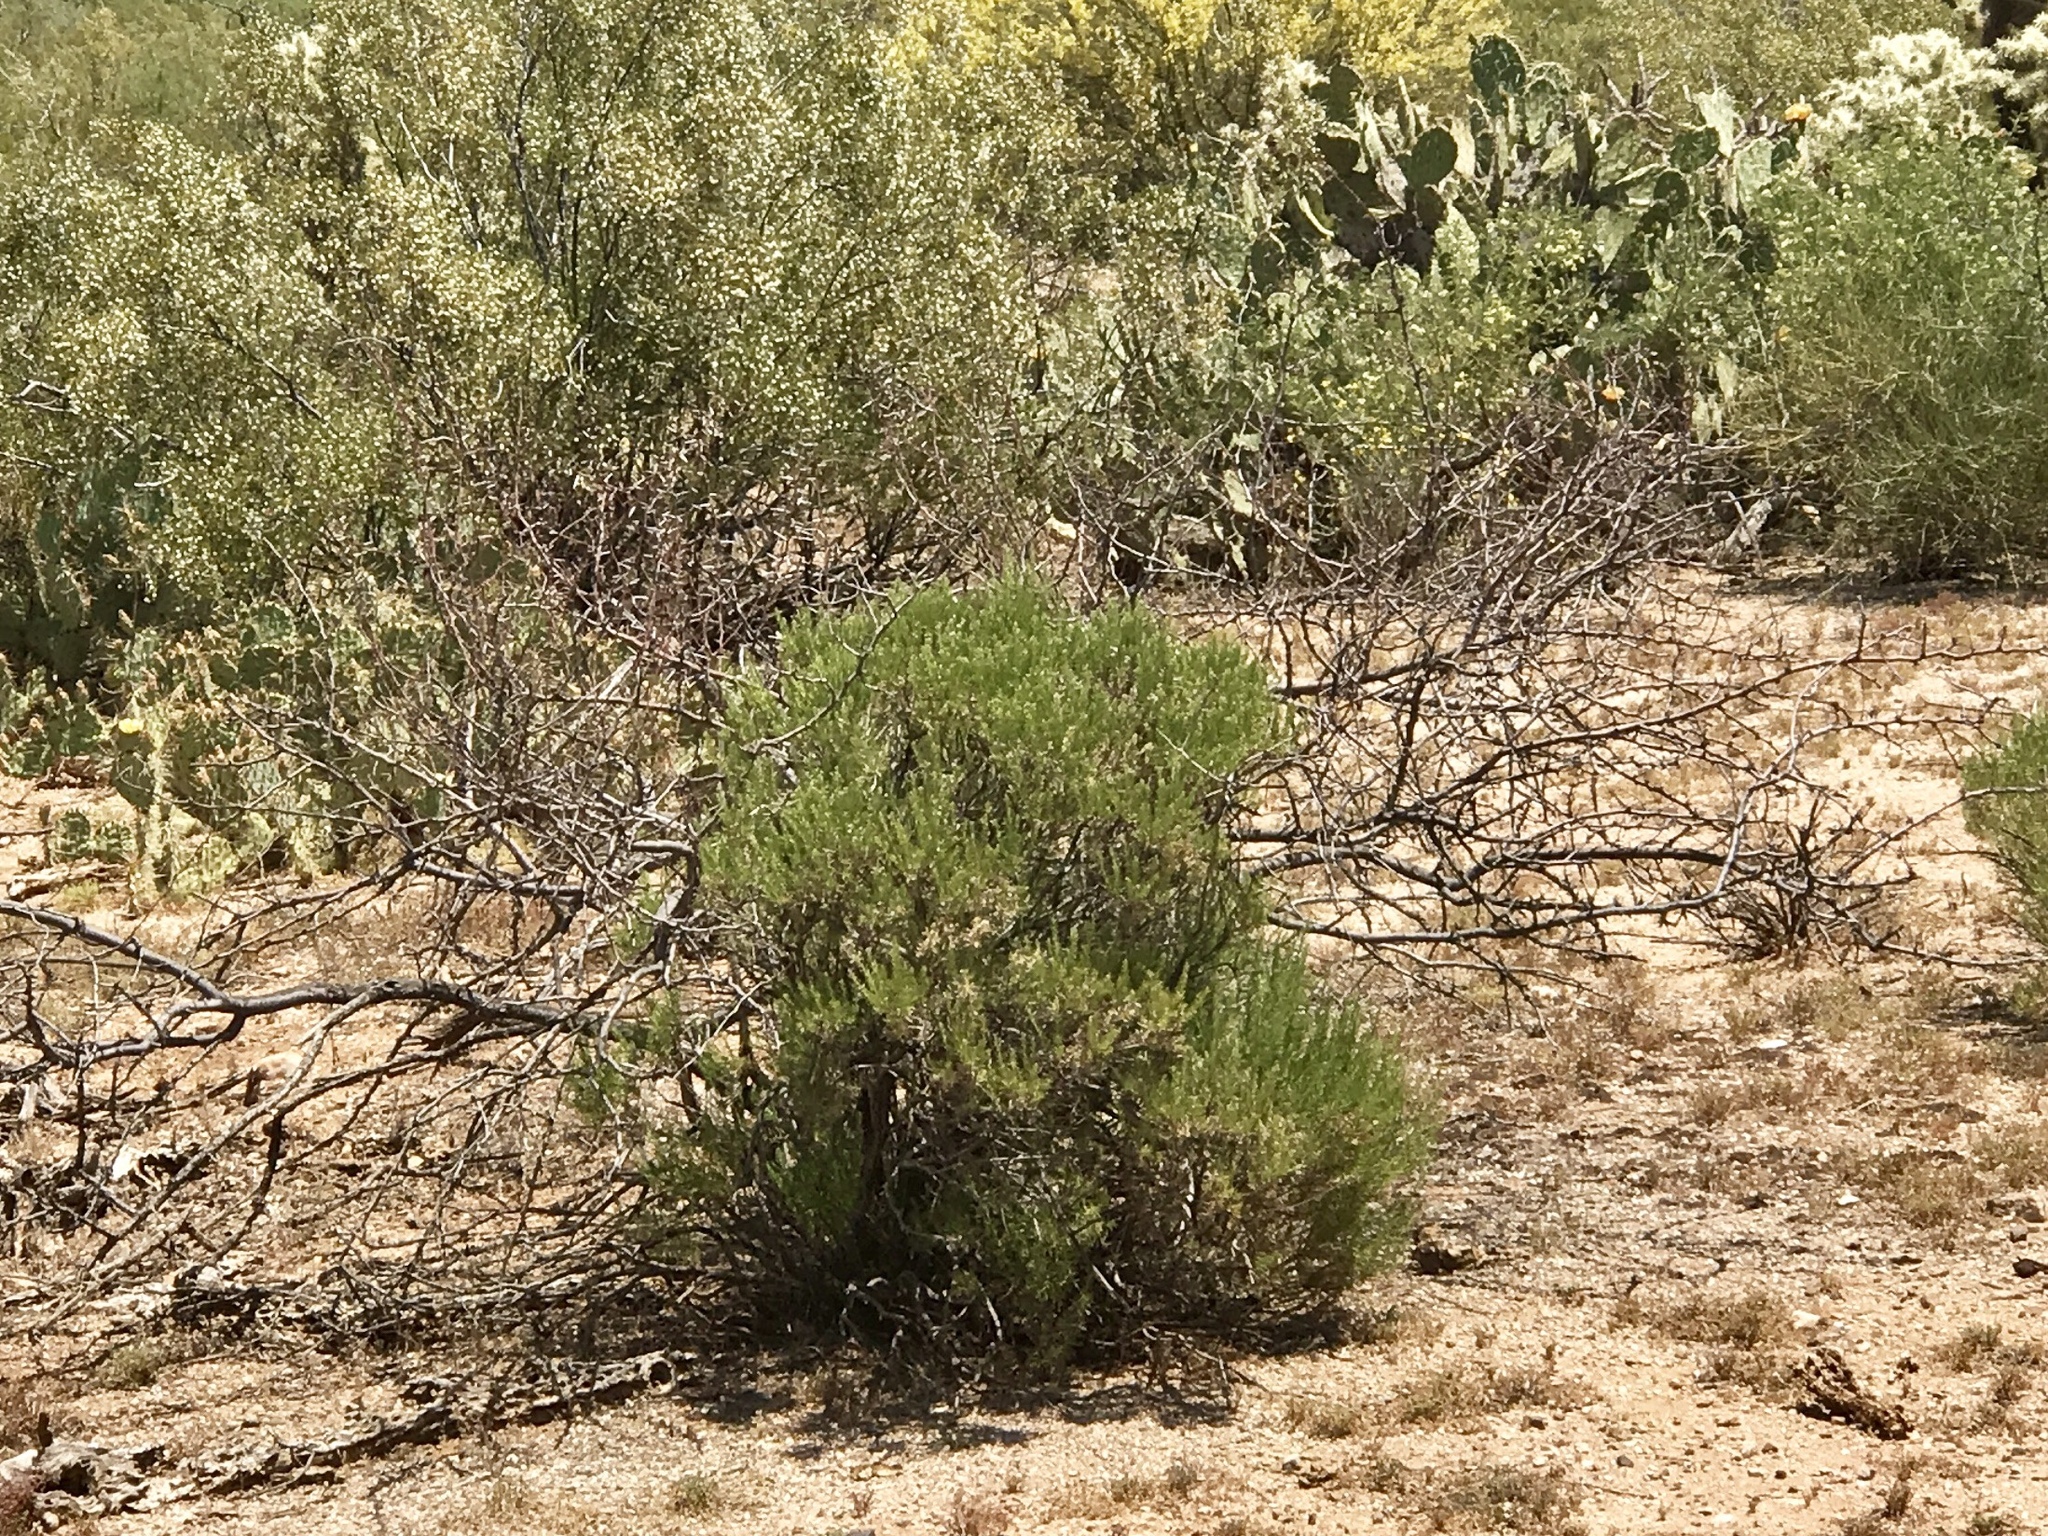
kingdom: Plantae
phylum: Tracheophyta
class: Magnoliopsida
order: Asterales
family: Asteraceae
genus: Ericameria
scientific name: Ericameria laricifolia
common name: Turpentine-bush
